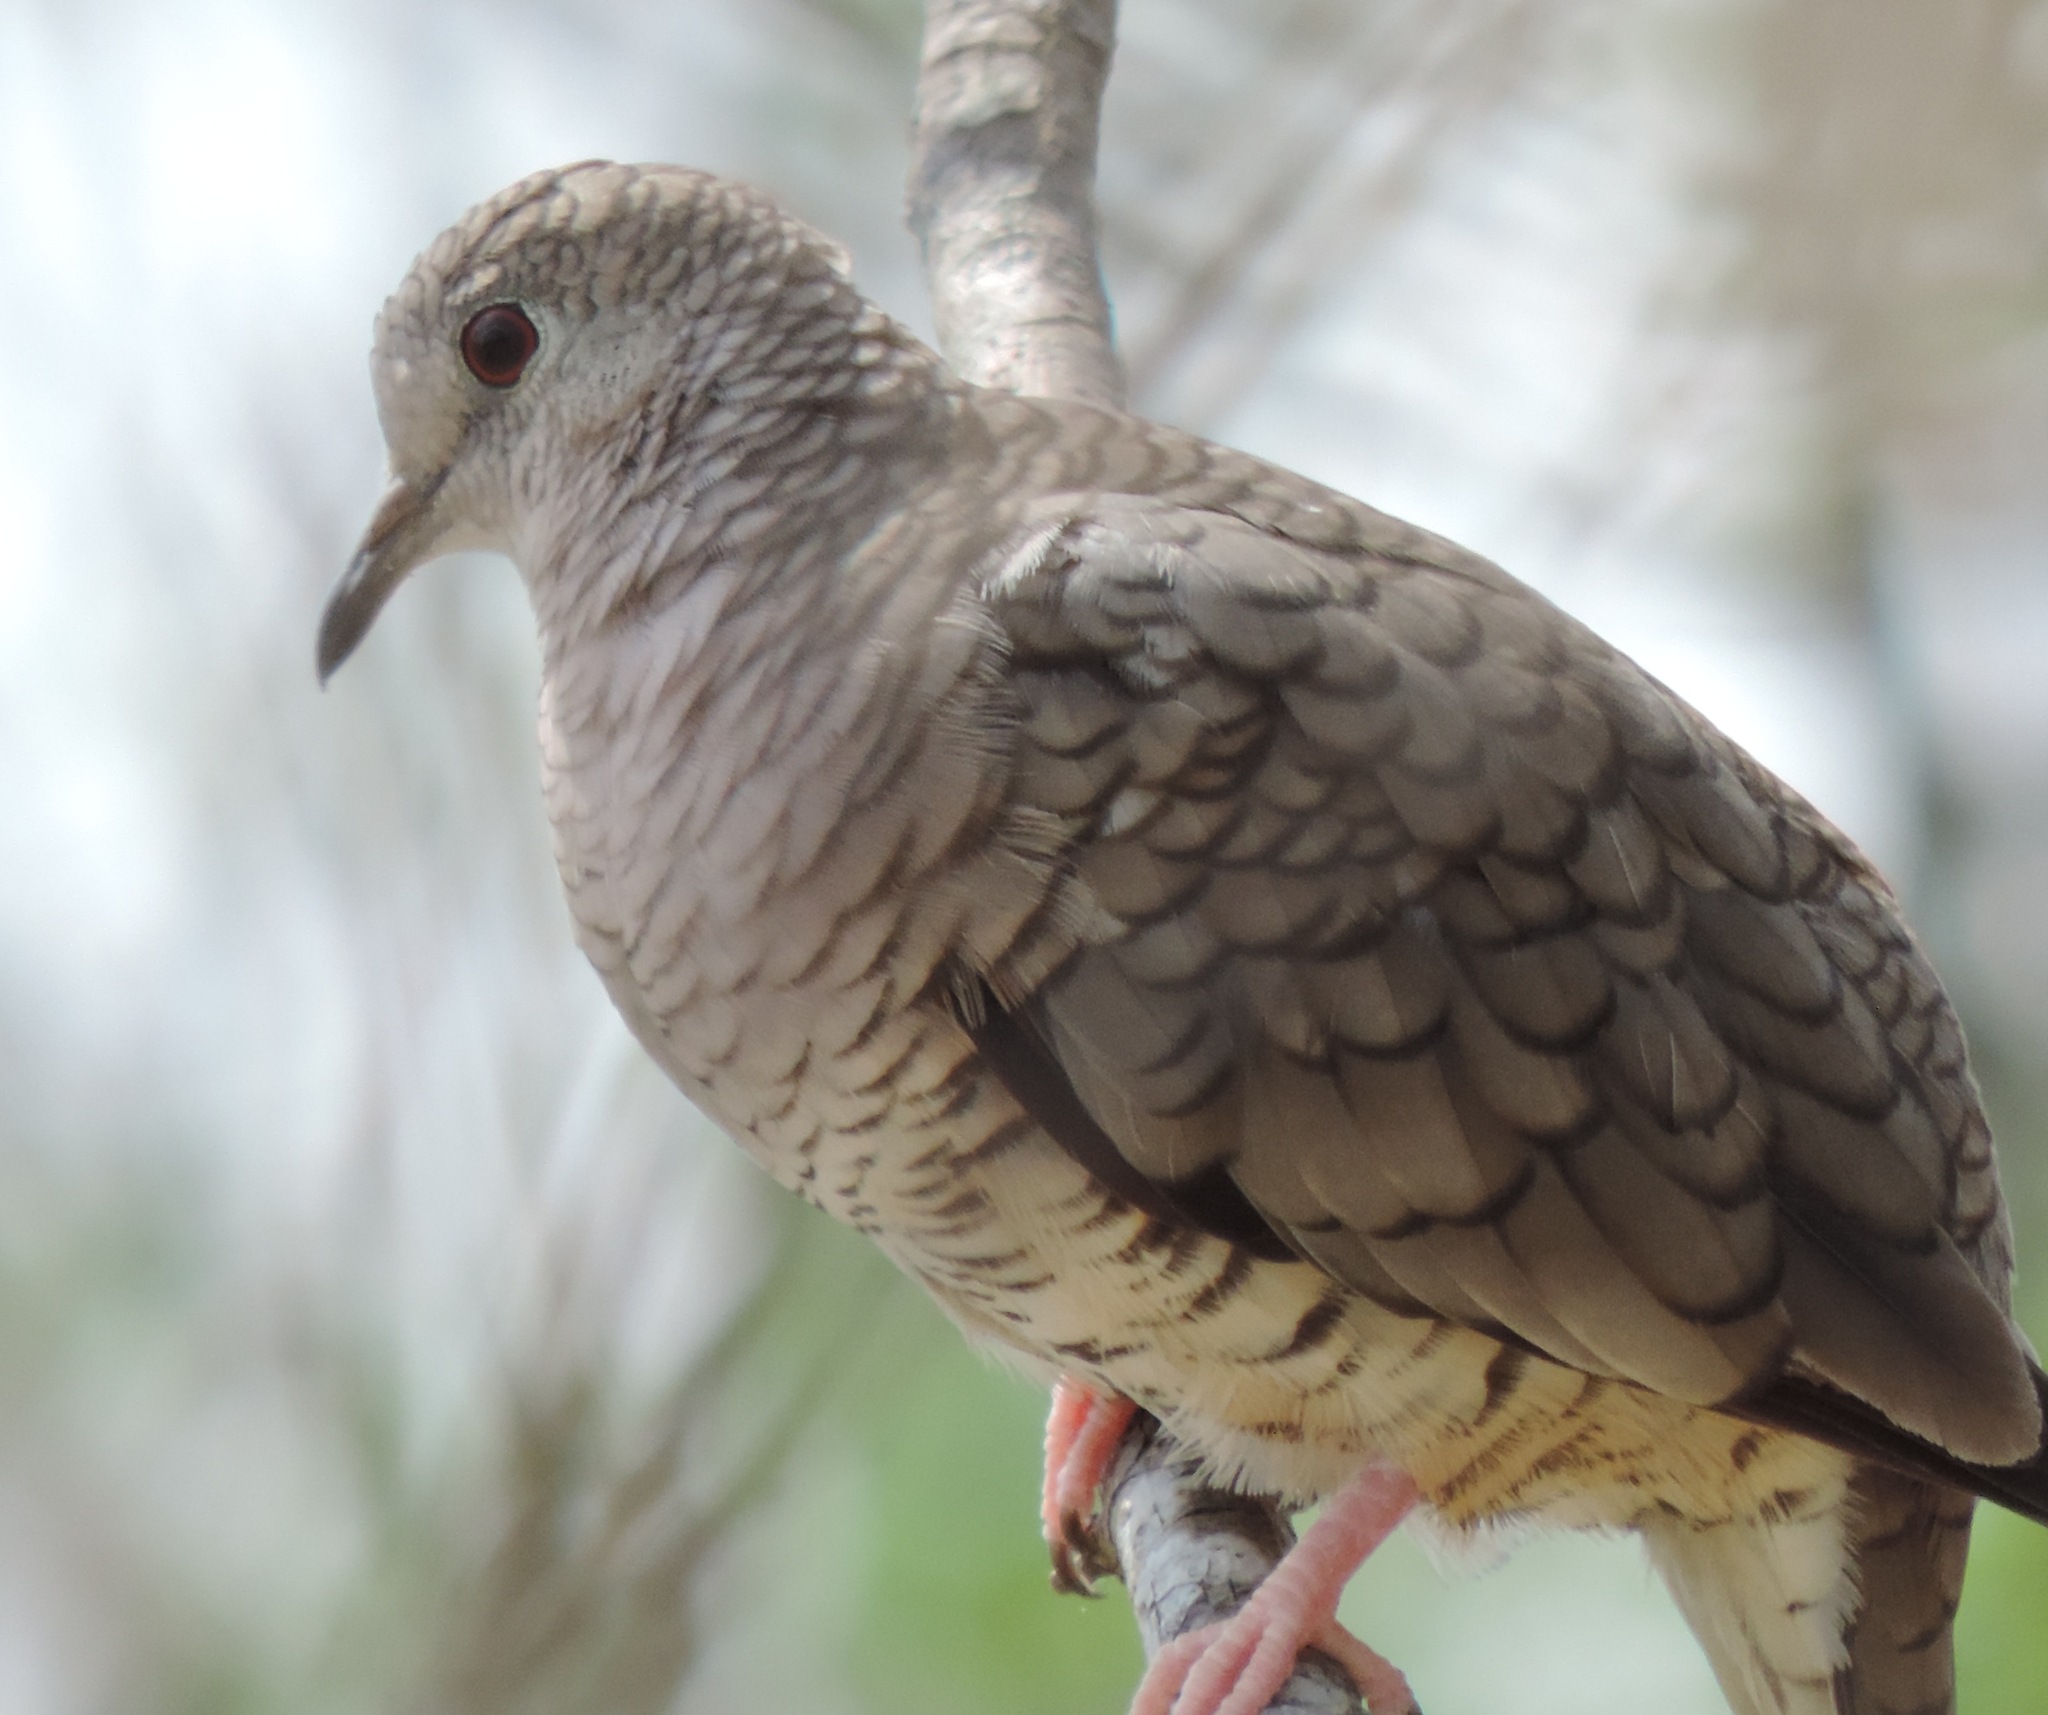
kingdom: Animalia
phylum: Chordata
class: Aves
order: Columbiformes
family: Columbidae
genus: Columbina
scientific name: Columbina inca
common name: Inca dove
